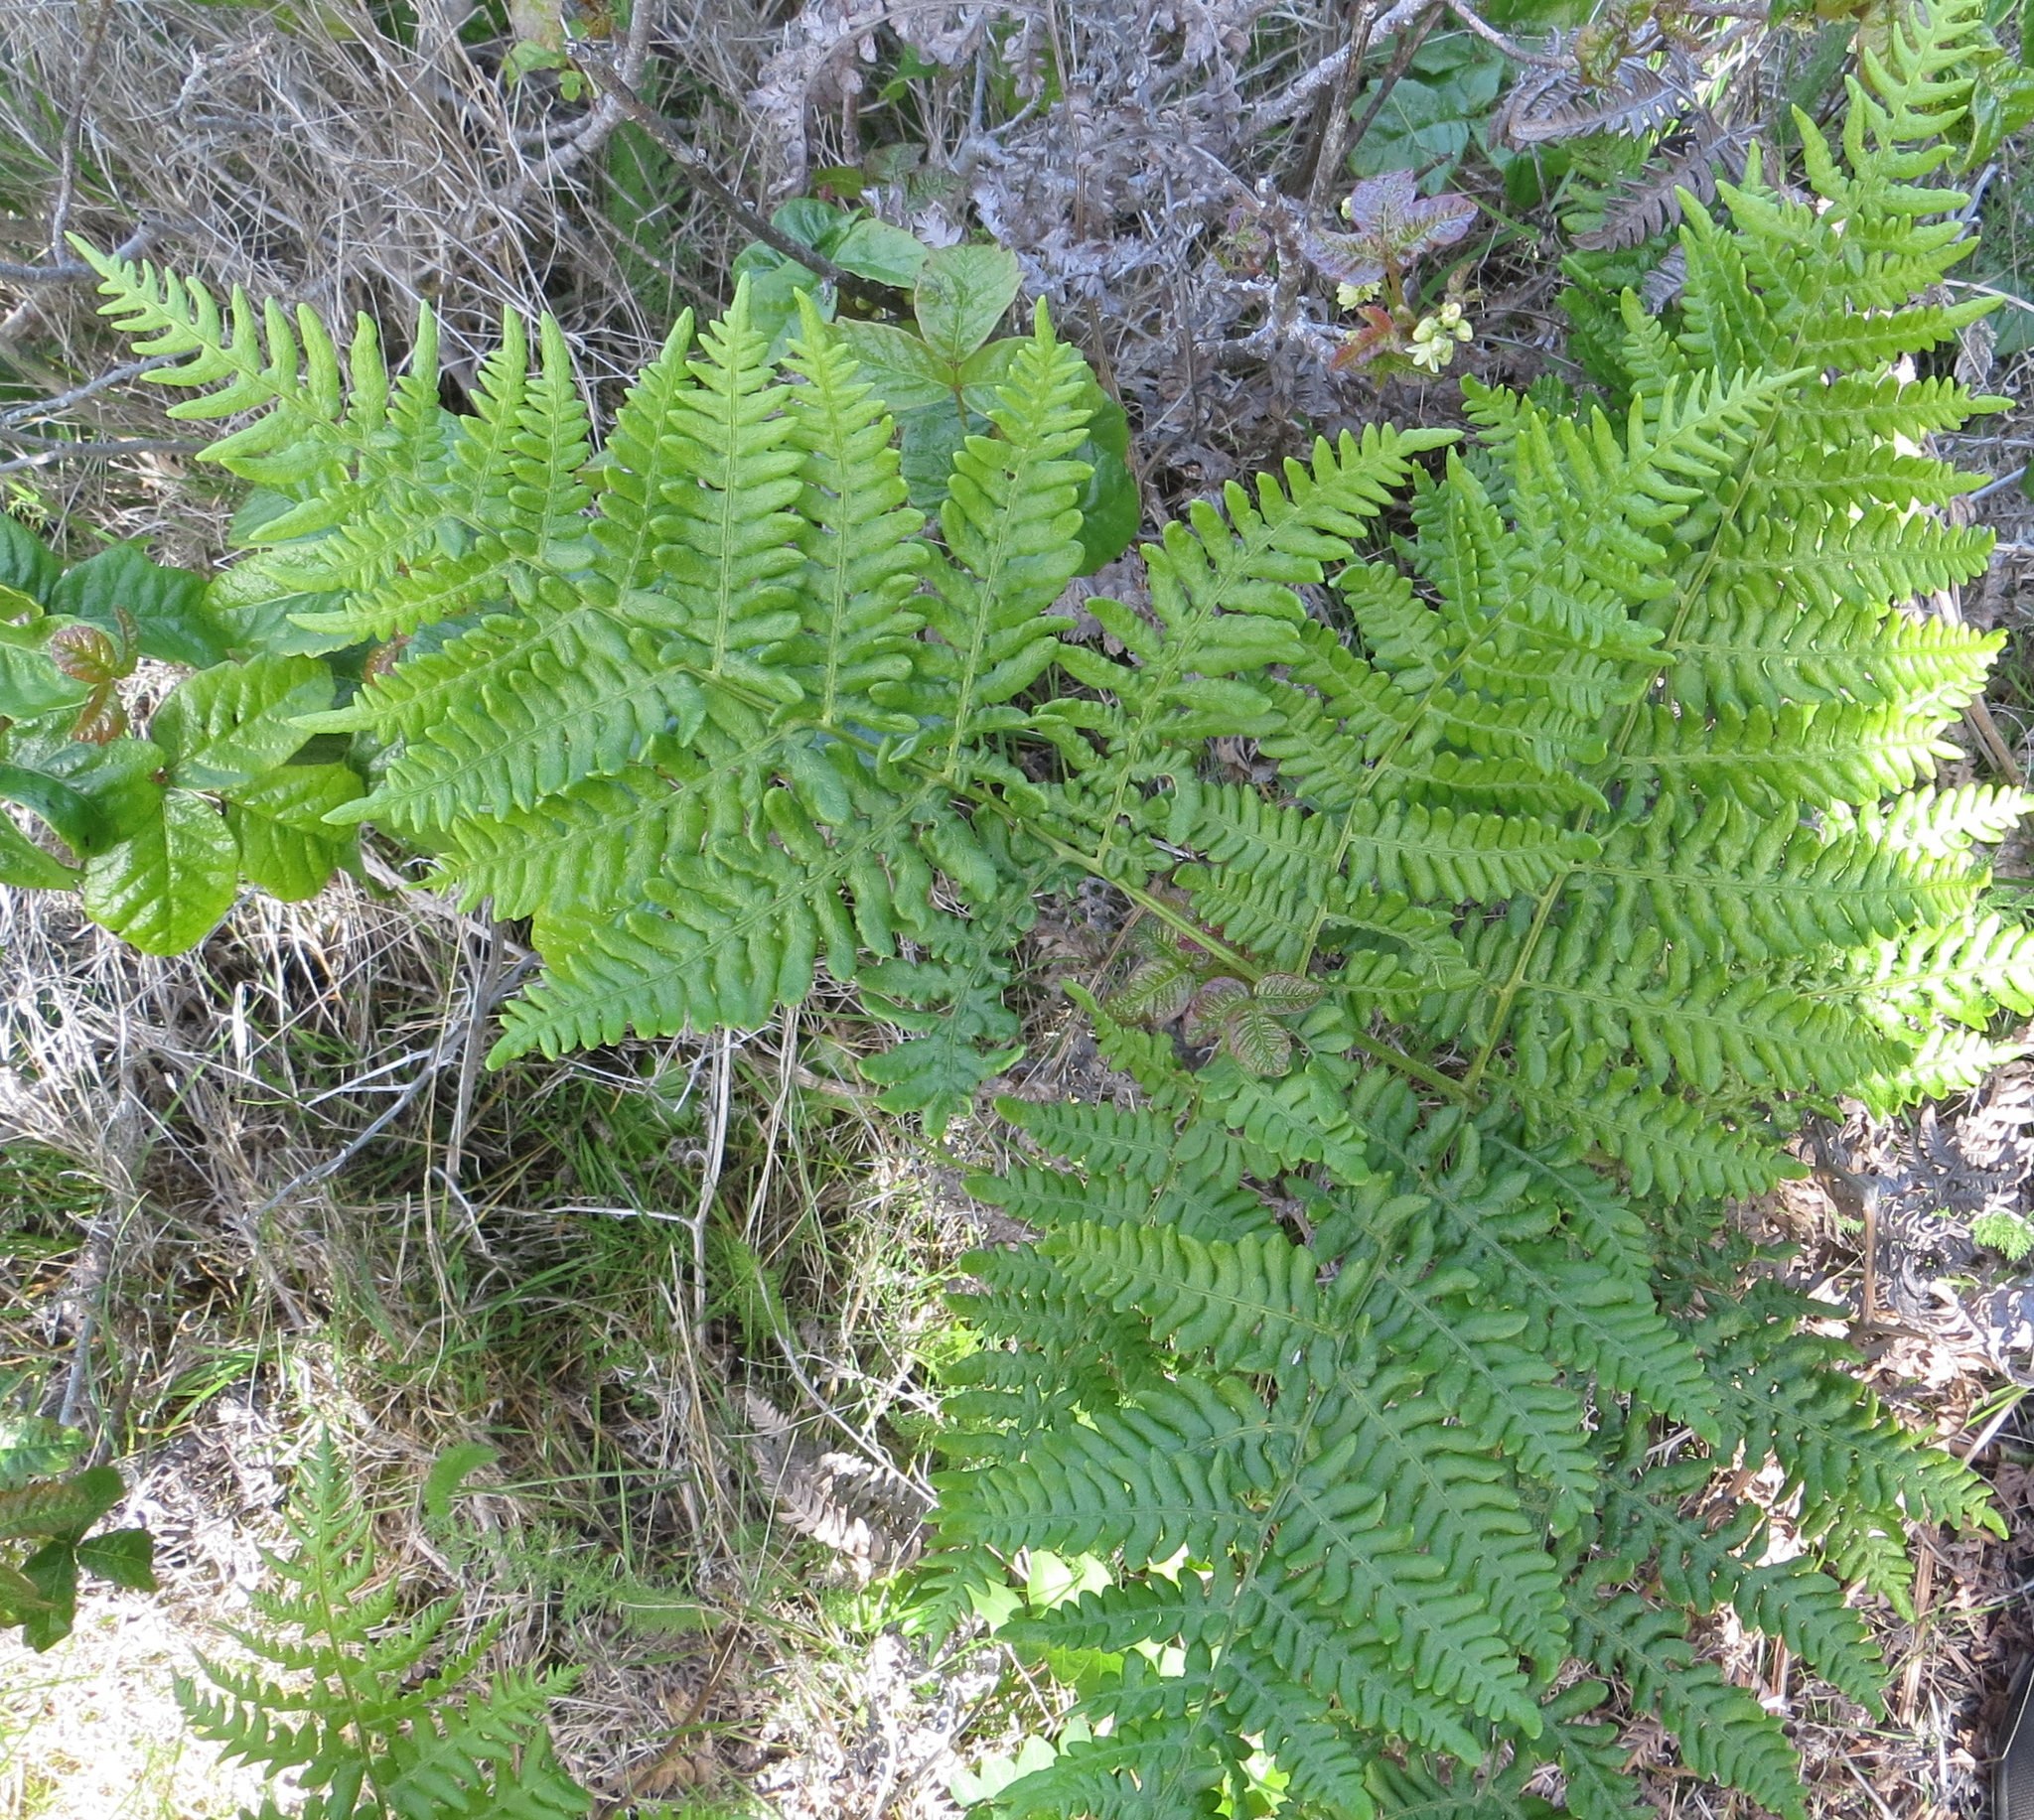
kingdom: Plantae
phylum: Tracheophyta
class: Polypodiopsida
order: Polypodiales
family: Dennstaedtiaceae
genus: Pteridium
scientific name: Pteridium aquilinum
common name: Bracken
